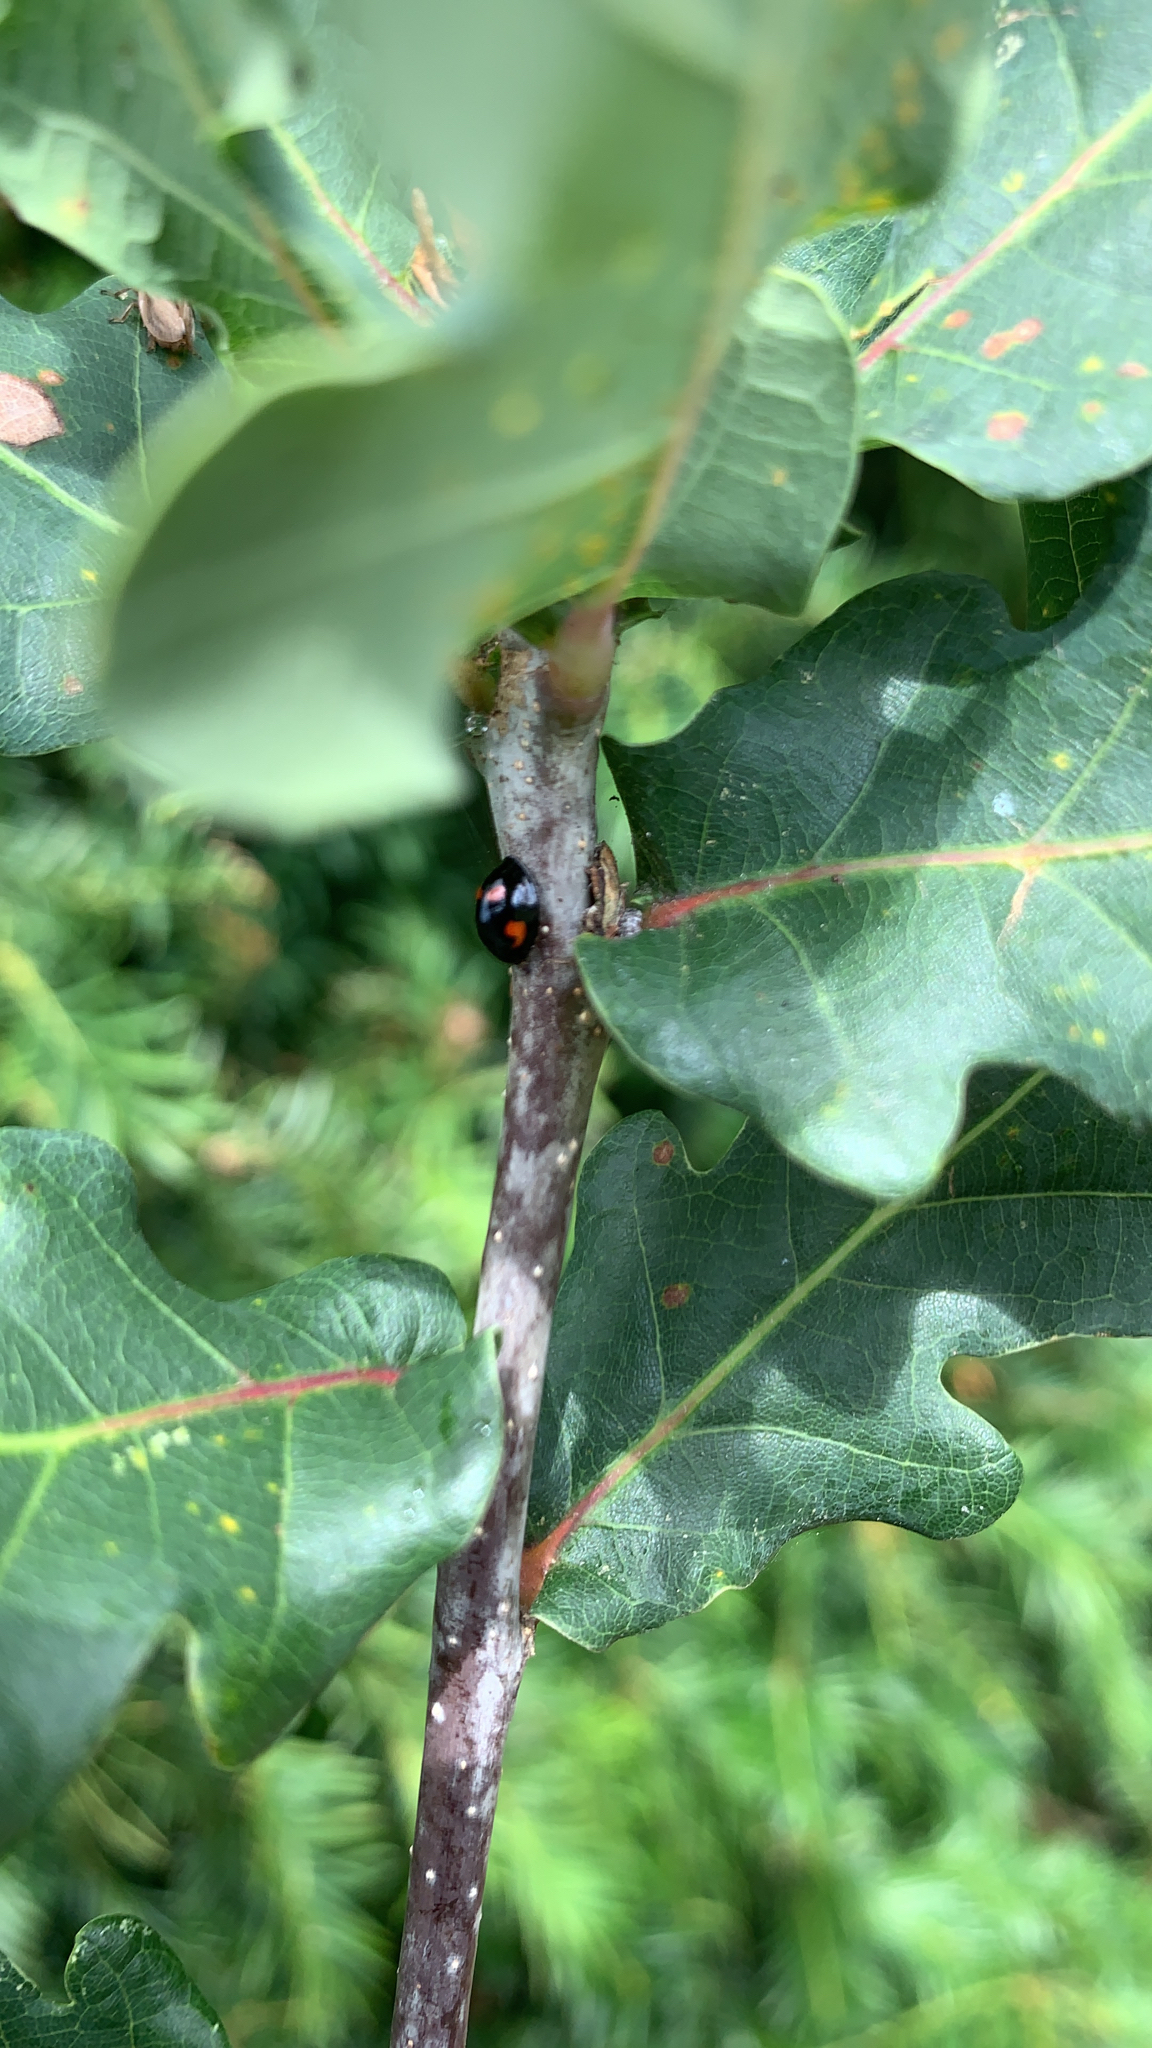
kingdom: Animalia
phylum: Arthropoda
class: Insecta
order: Coleoptera
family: Coccinellidae
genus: Brumus
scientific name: Brumus quadripustulatus
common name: Ladybird beetle
